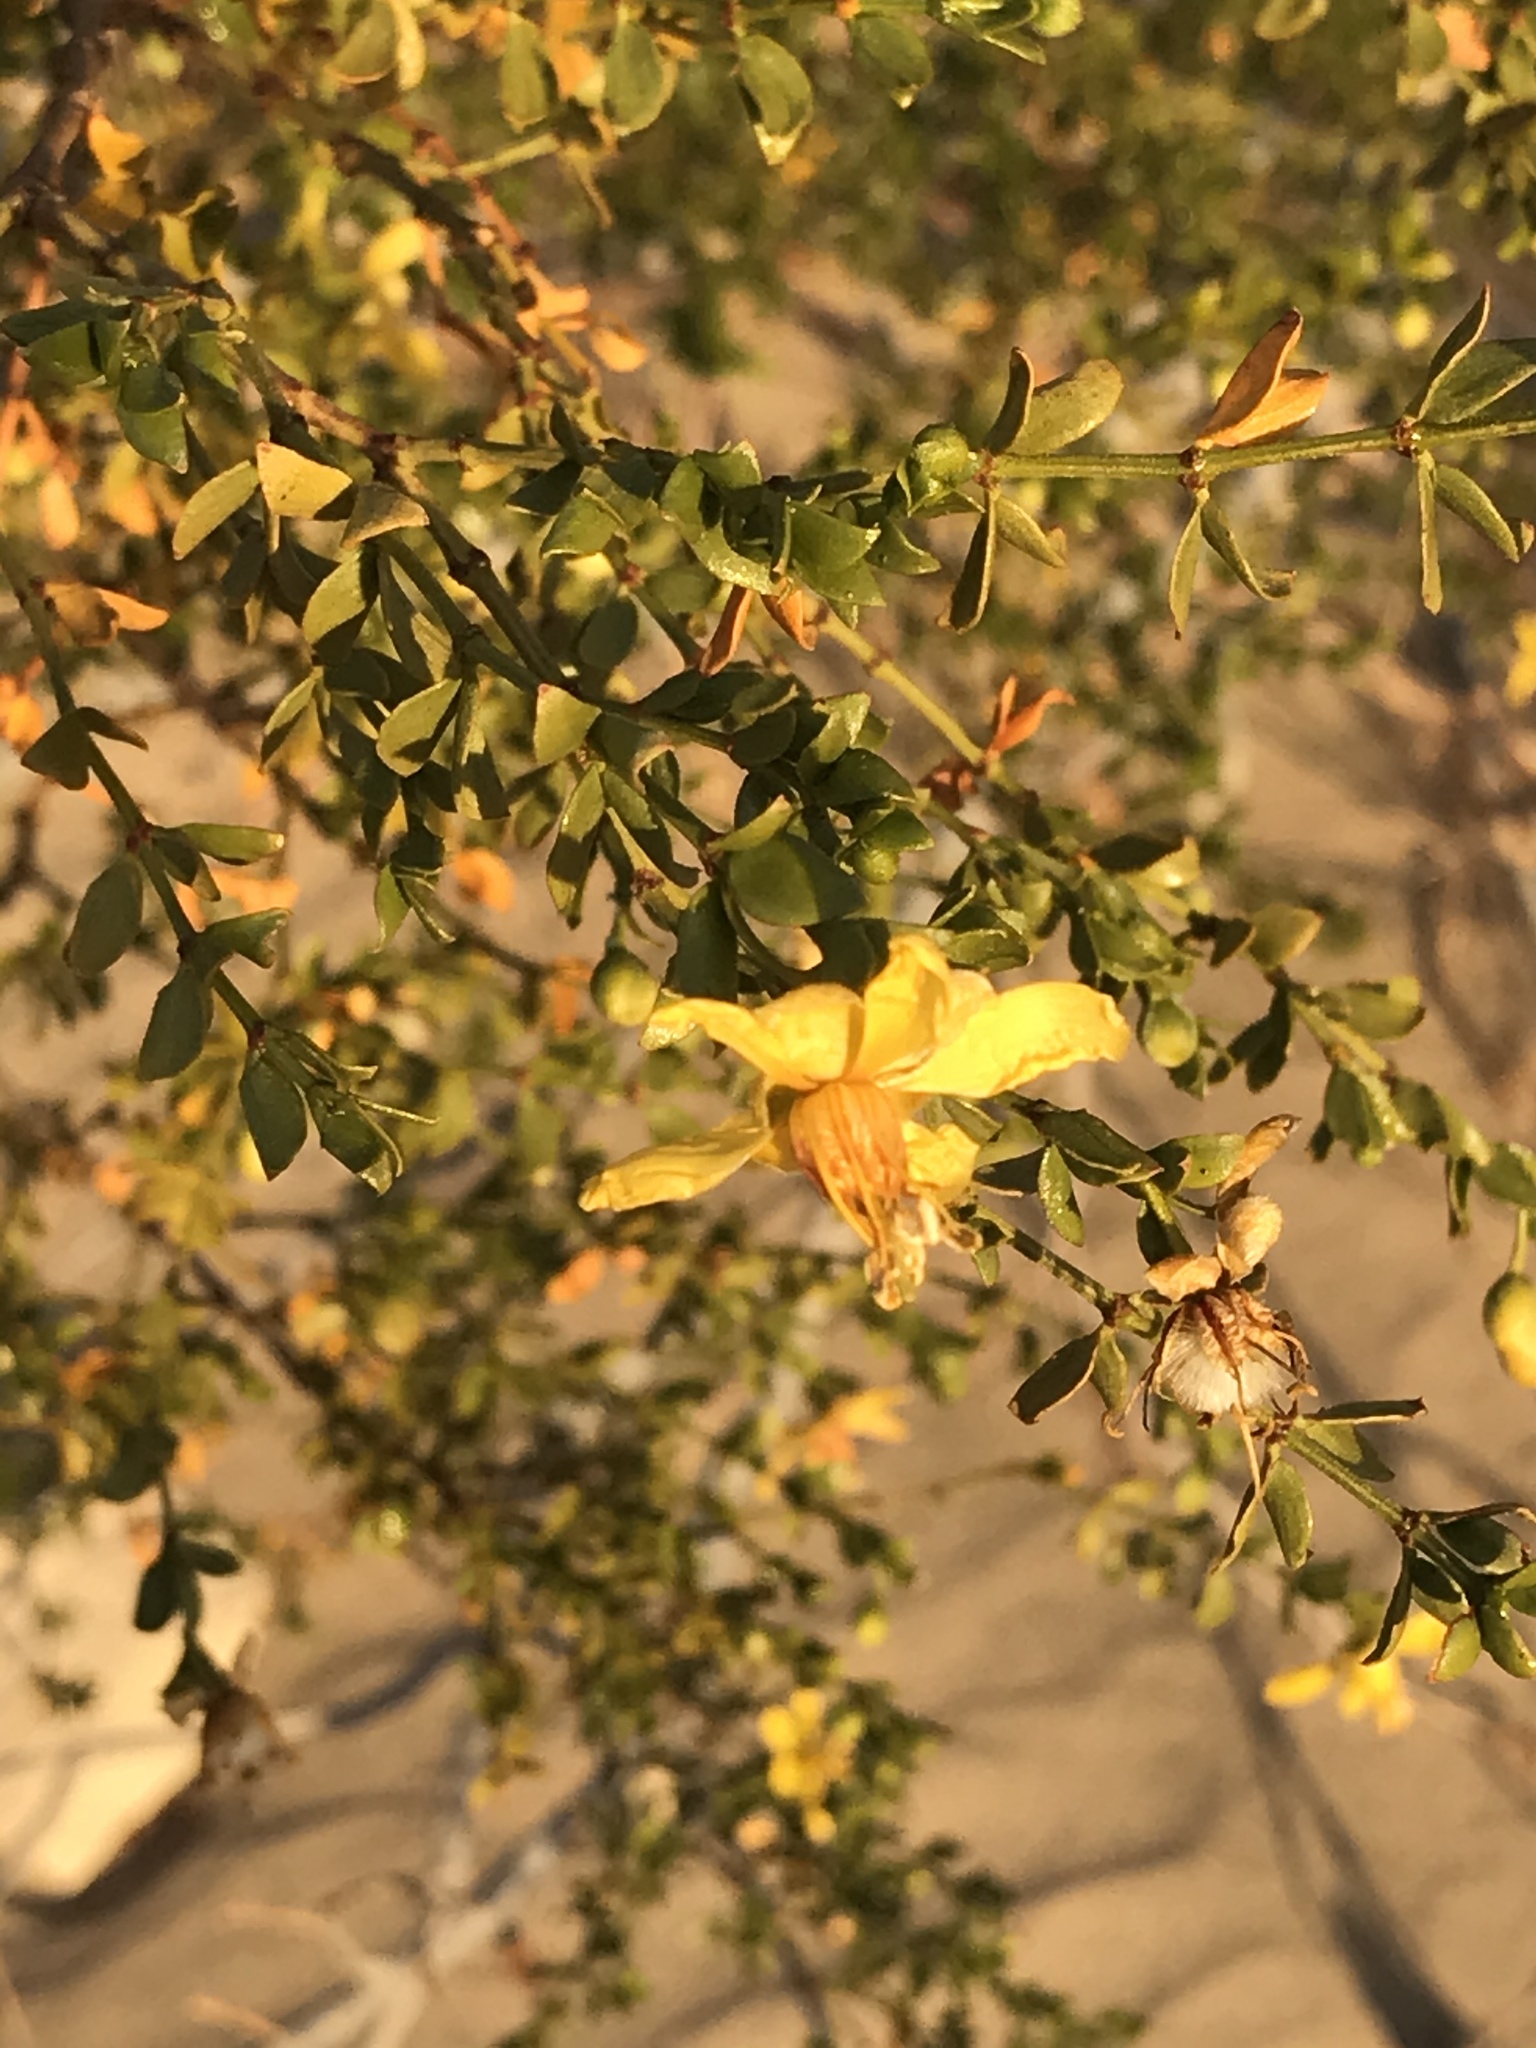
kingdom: Plantae
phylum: Tracheophyta
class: Magnoliopsida
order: Zygophyllales
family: Zygophyllaceae
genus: Larrea
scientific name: Larrea tridentata
